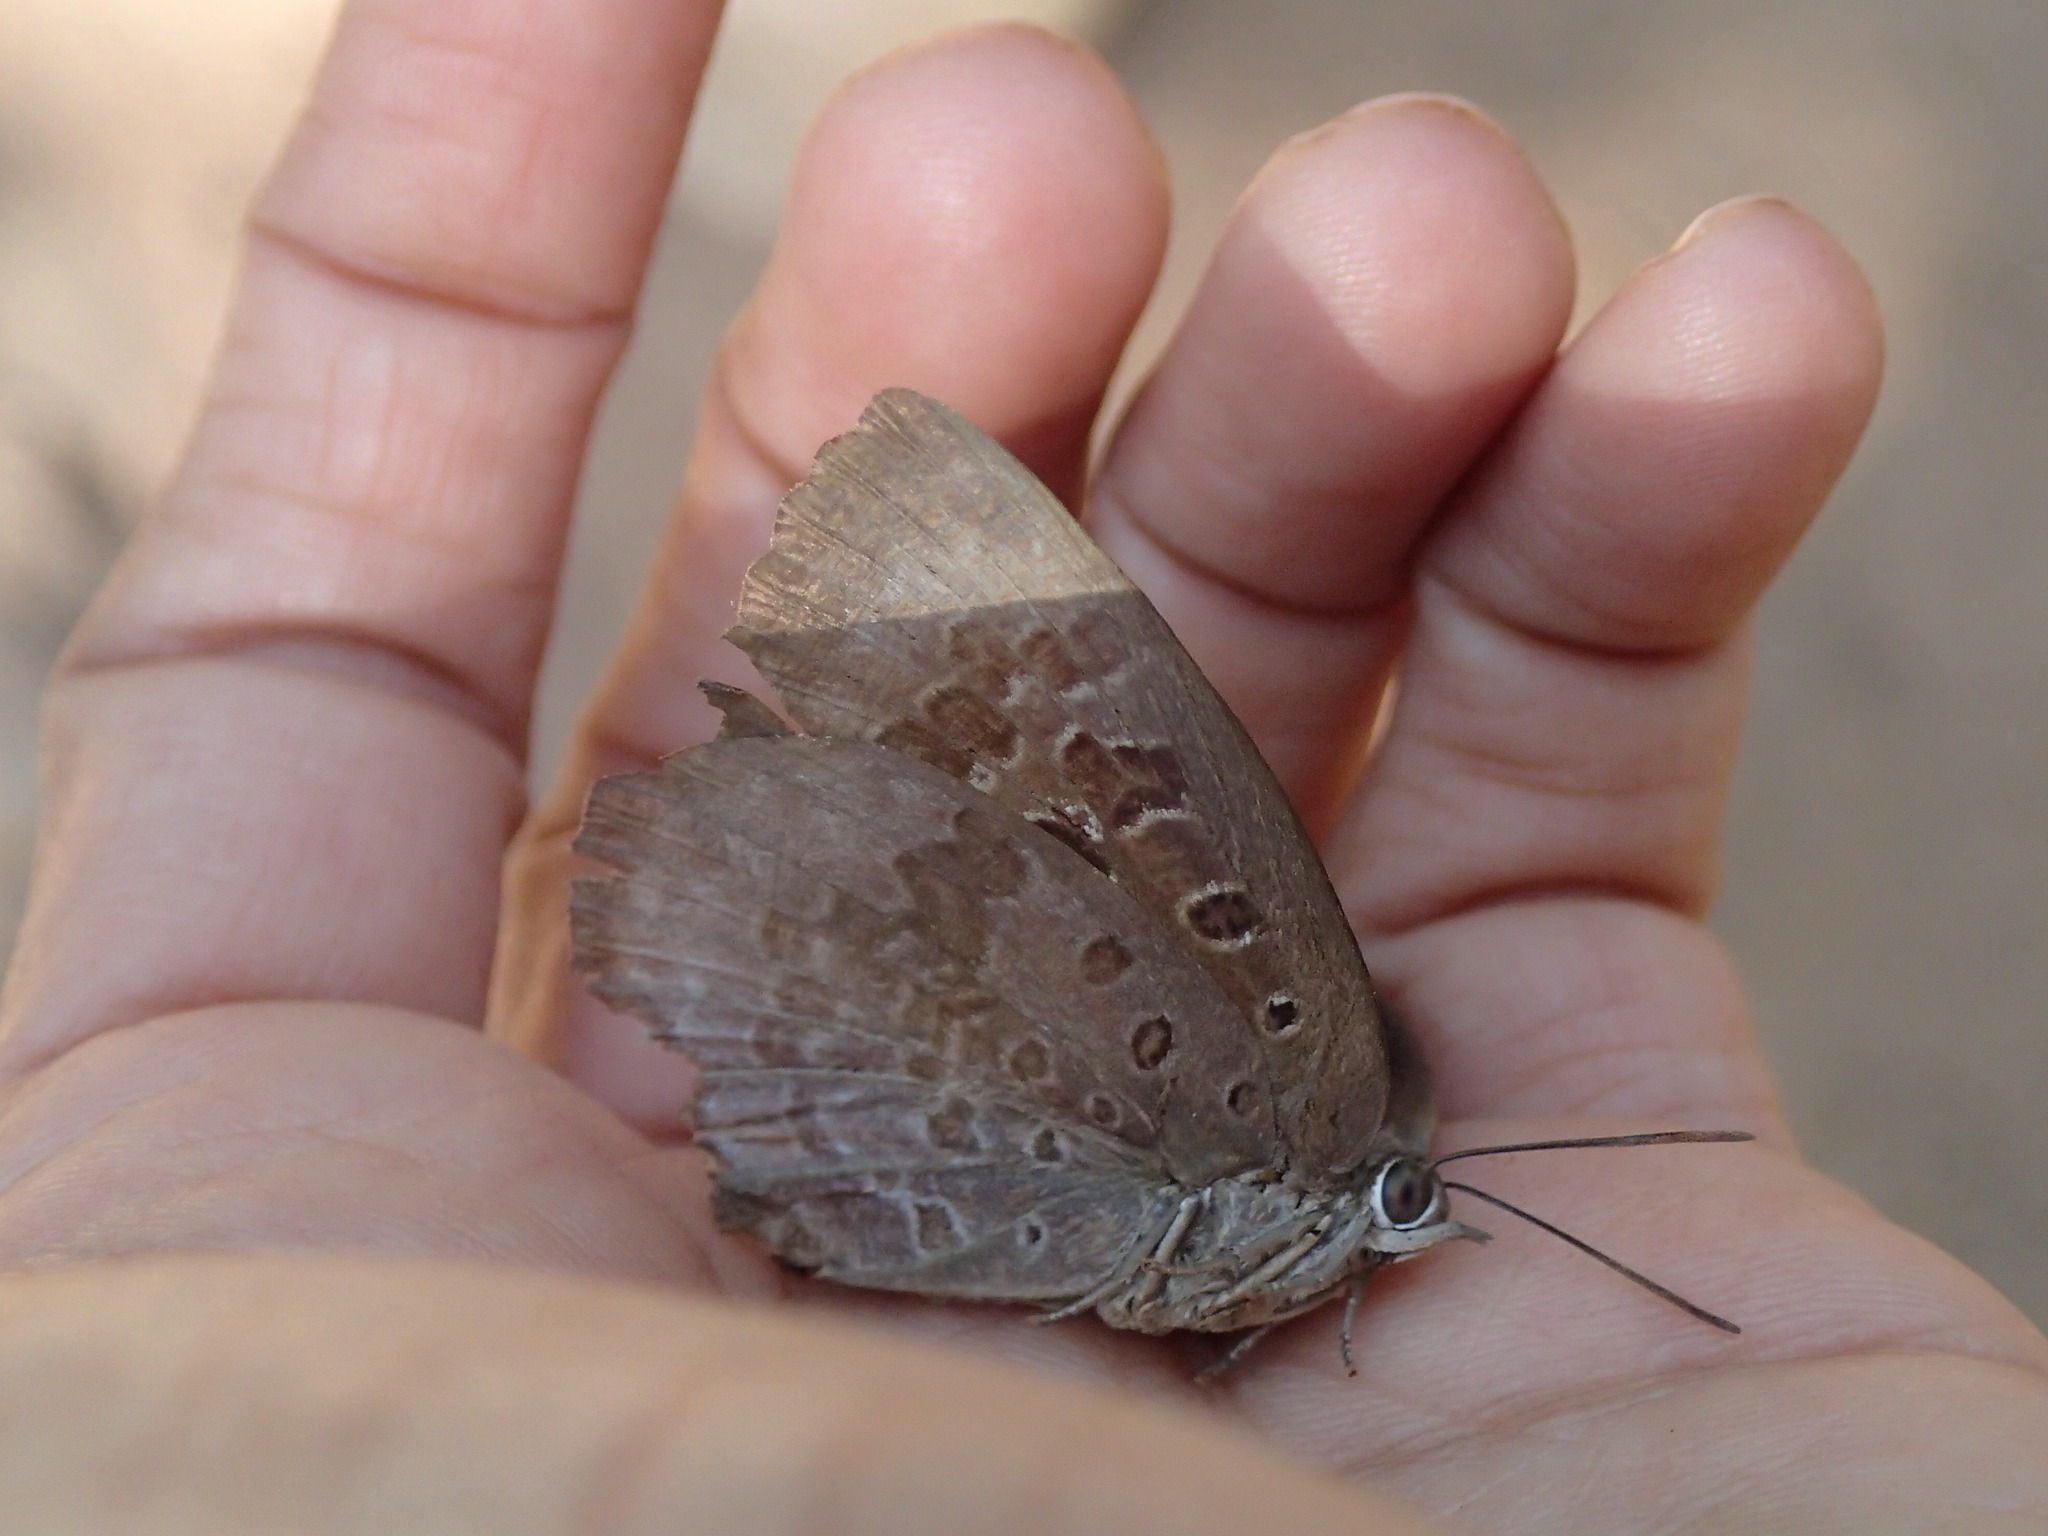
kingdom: Animalia
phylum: Arthropoda
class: Insecta
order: Lepidoptera
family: Lycaenidae
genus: Arhopala
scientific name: Arhopala amantes
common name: Large oakblue
